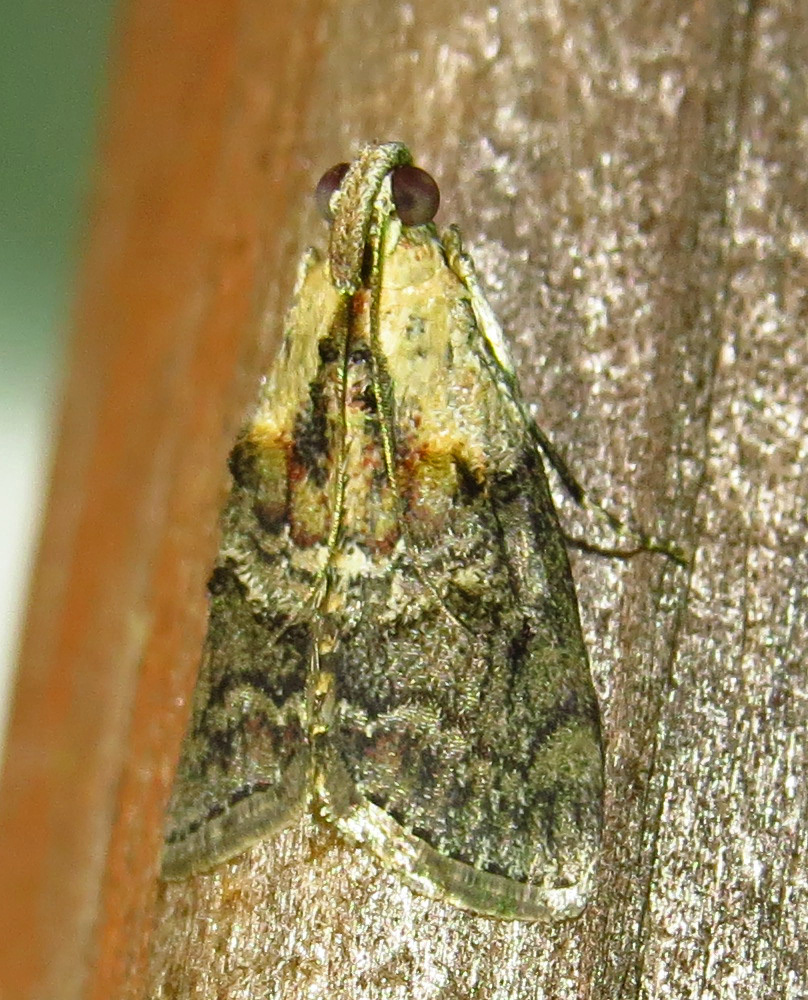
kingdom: Animalia
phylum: Arthropoda
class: Insecta
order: Lepidoptera
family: Pyralidae
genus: Pococera
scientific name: Pococera expandens
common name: Striped oak webworm moth
